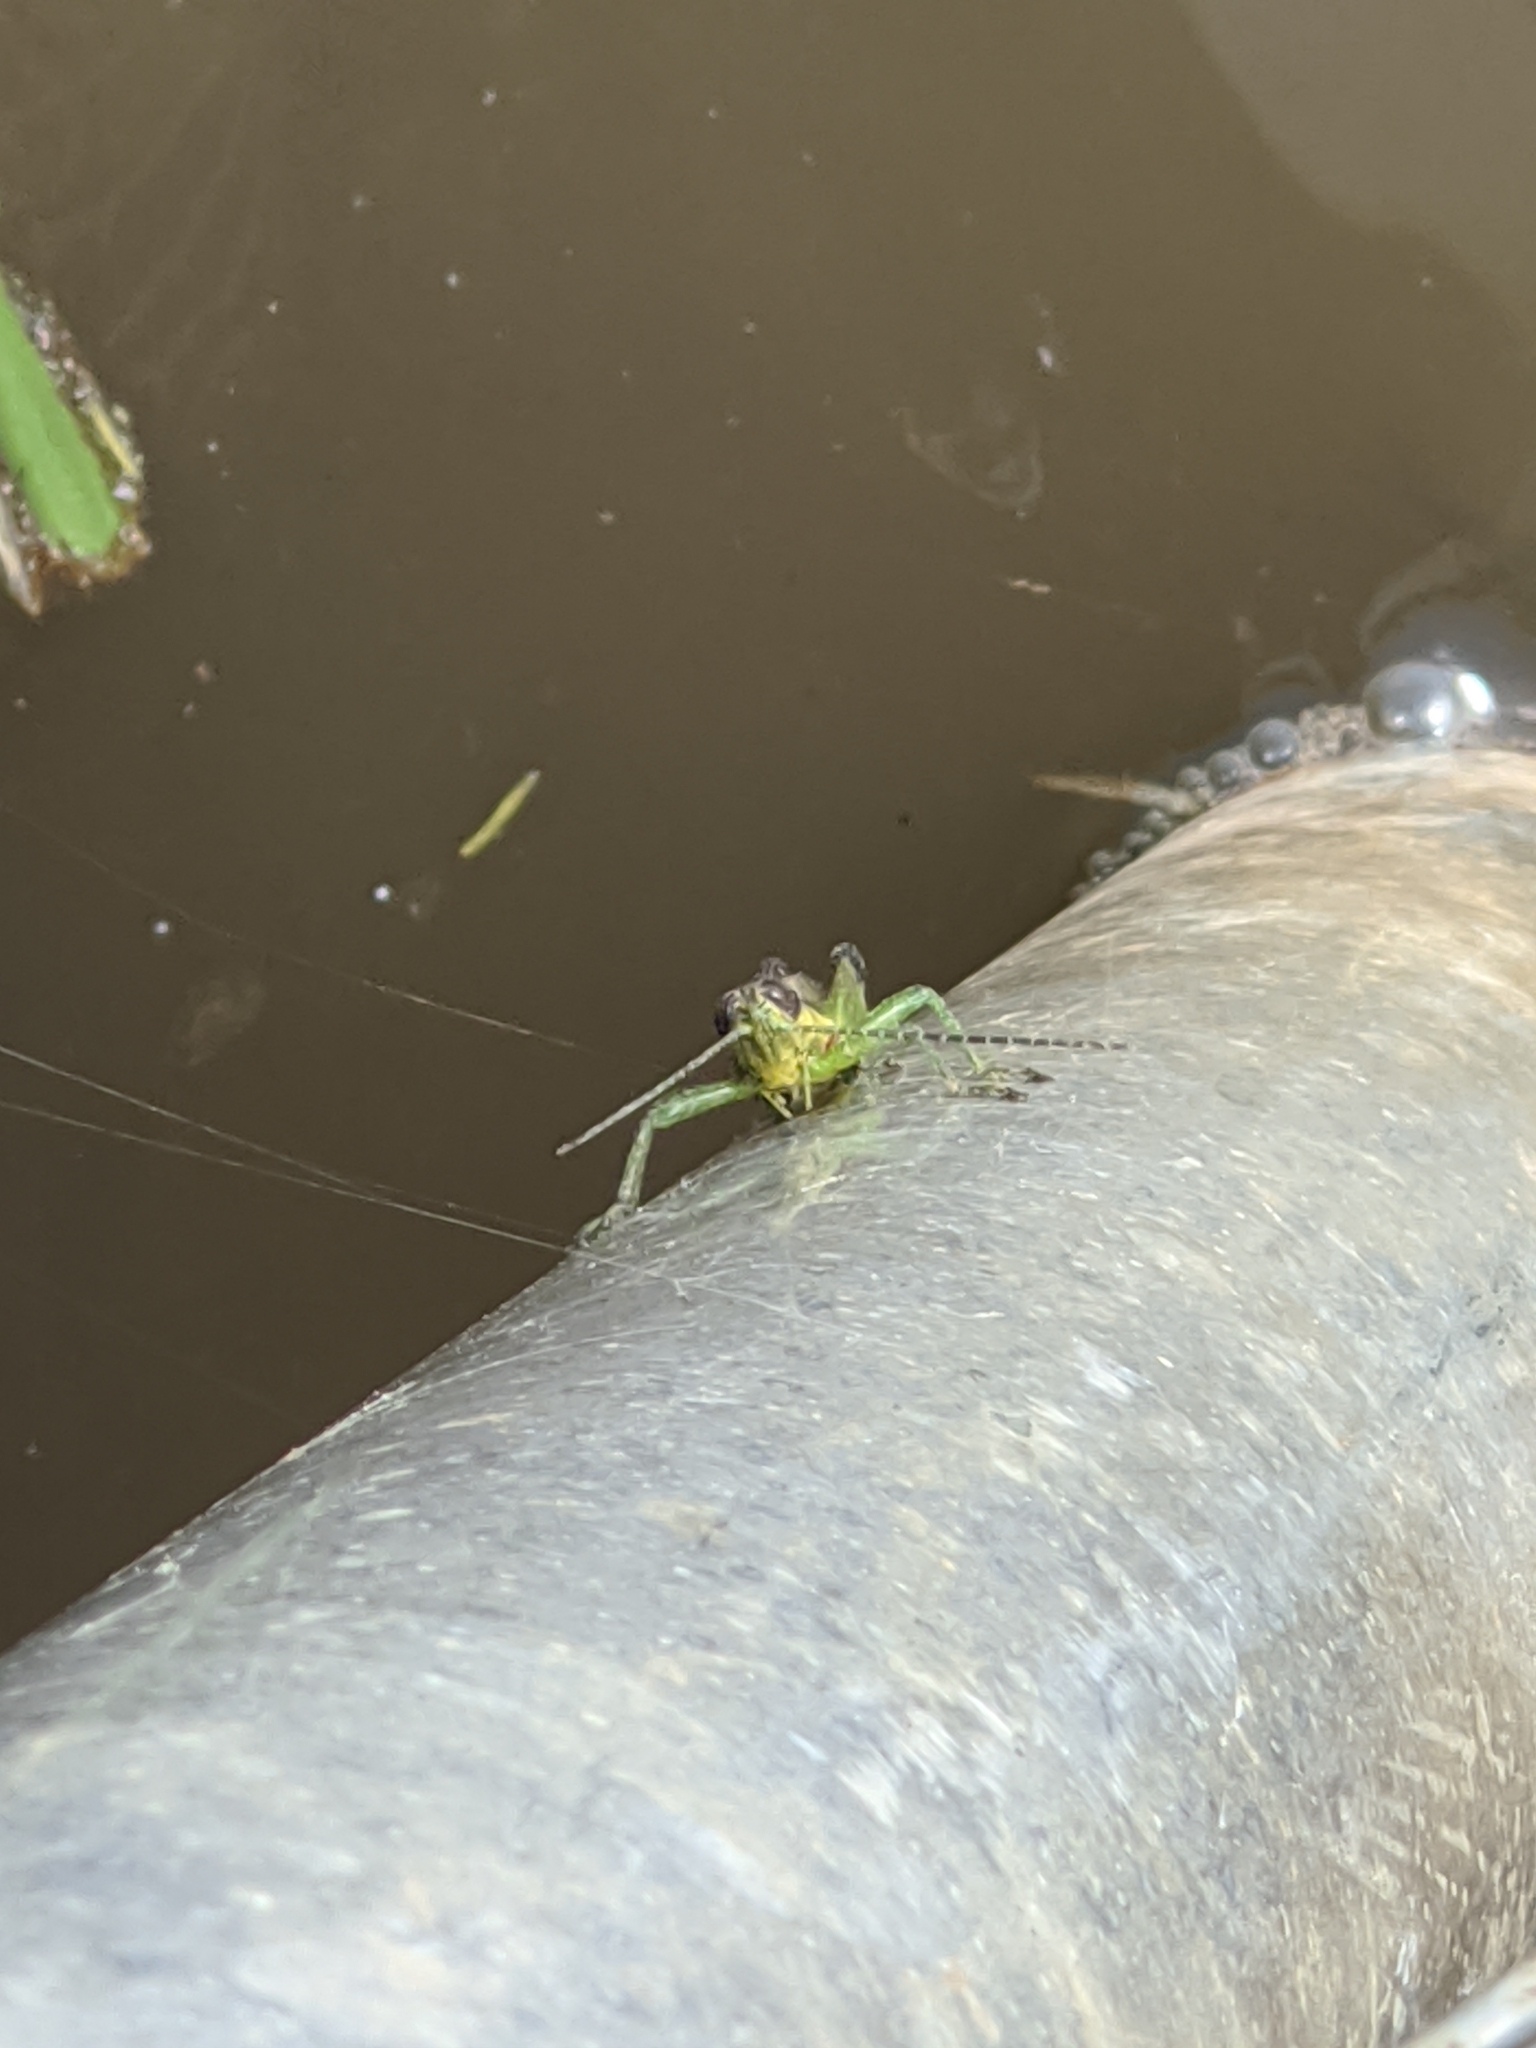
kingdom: Animalia
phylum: Arthropoda
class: Insecta
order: Orthoptera
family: Acrididae
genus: Paroxya
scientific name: Paroxya clavuligera
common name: Olive-green swamp grasshopper
